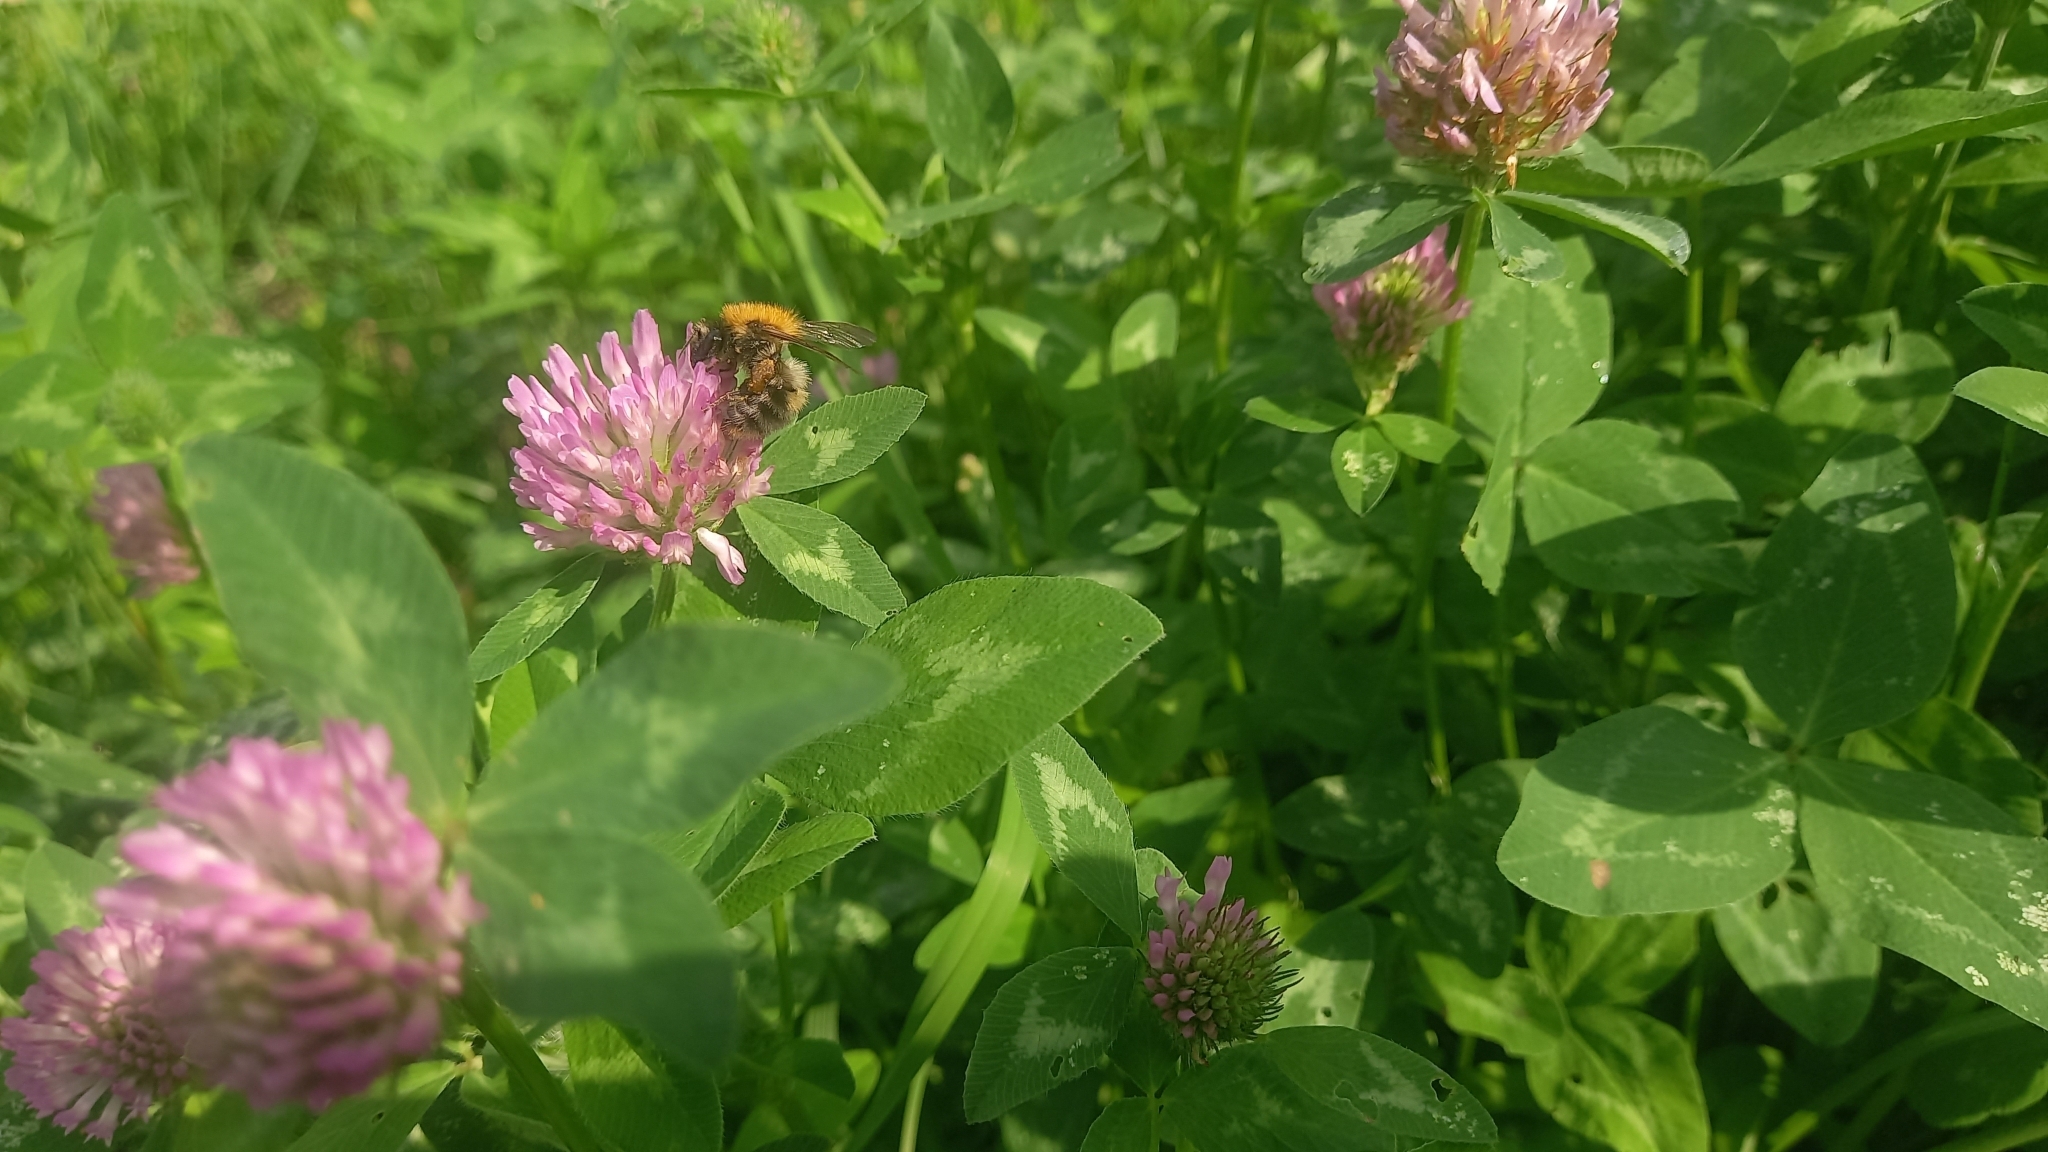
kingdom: Animalia
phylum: Arthropoda
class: Insecta
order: Hymenoptera
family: Apidae
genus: Bombus
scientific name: Bombus pascuorum
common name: Common carder bee
